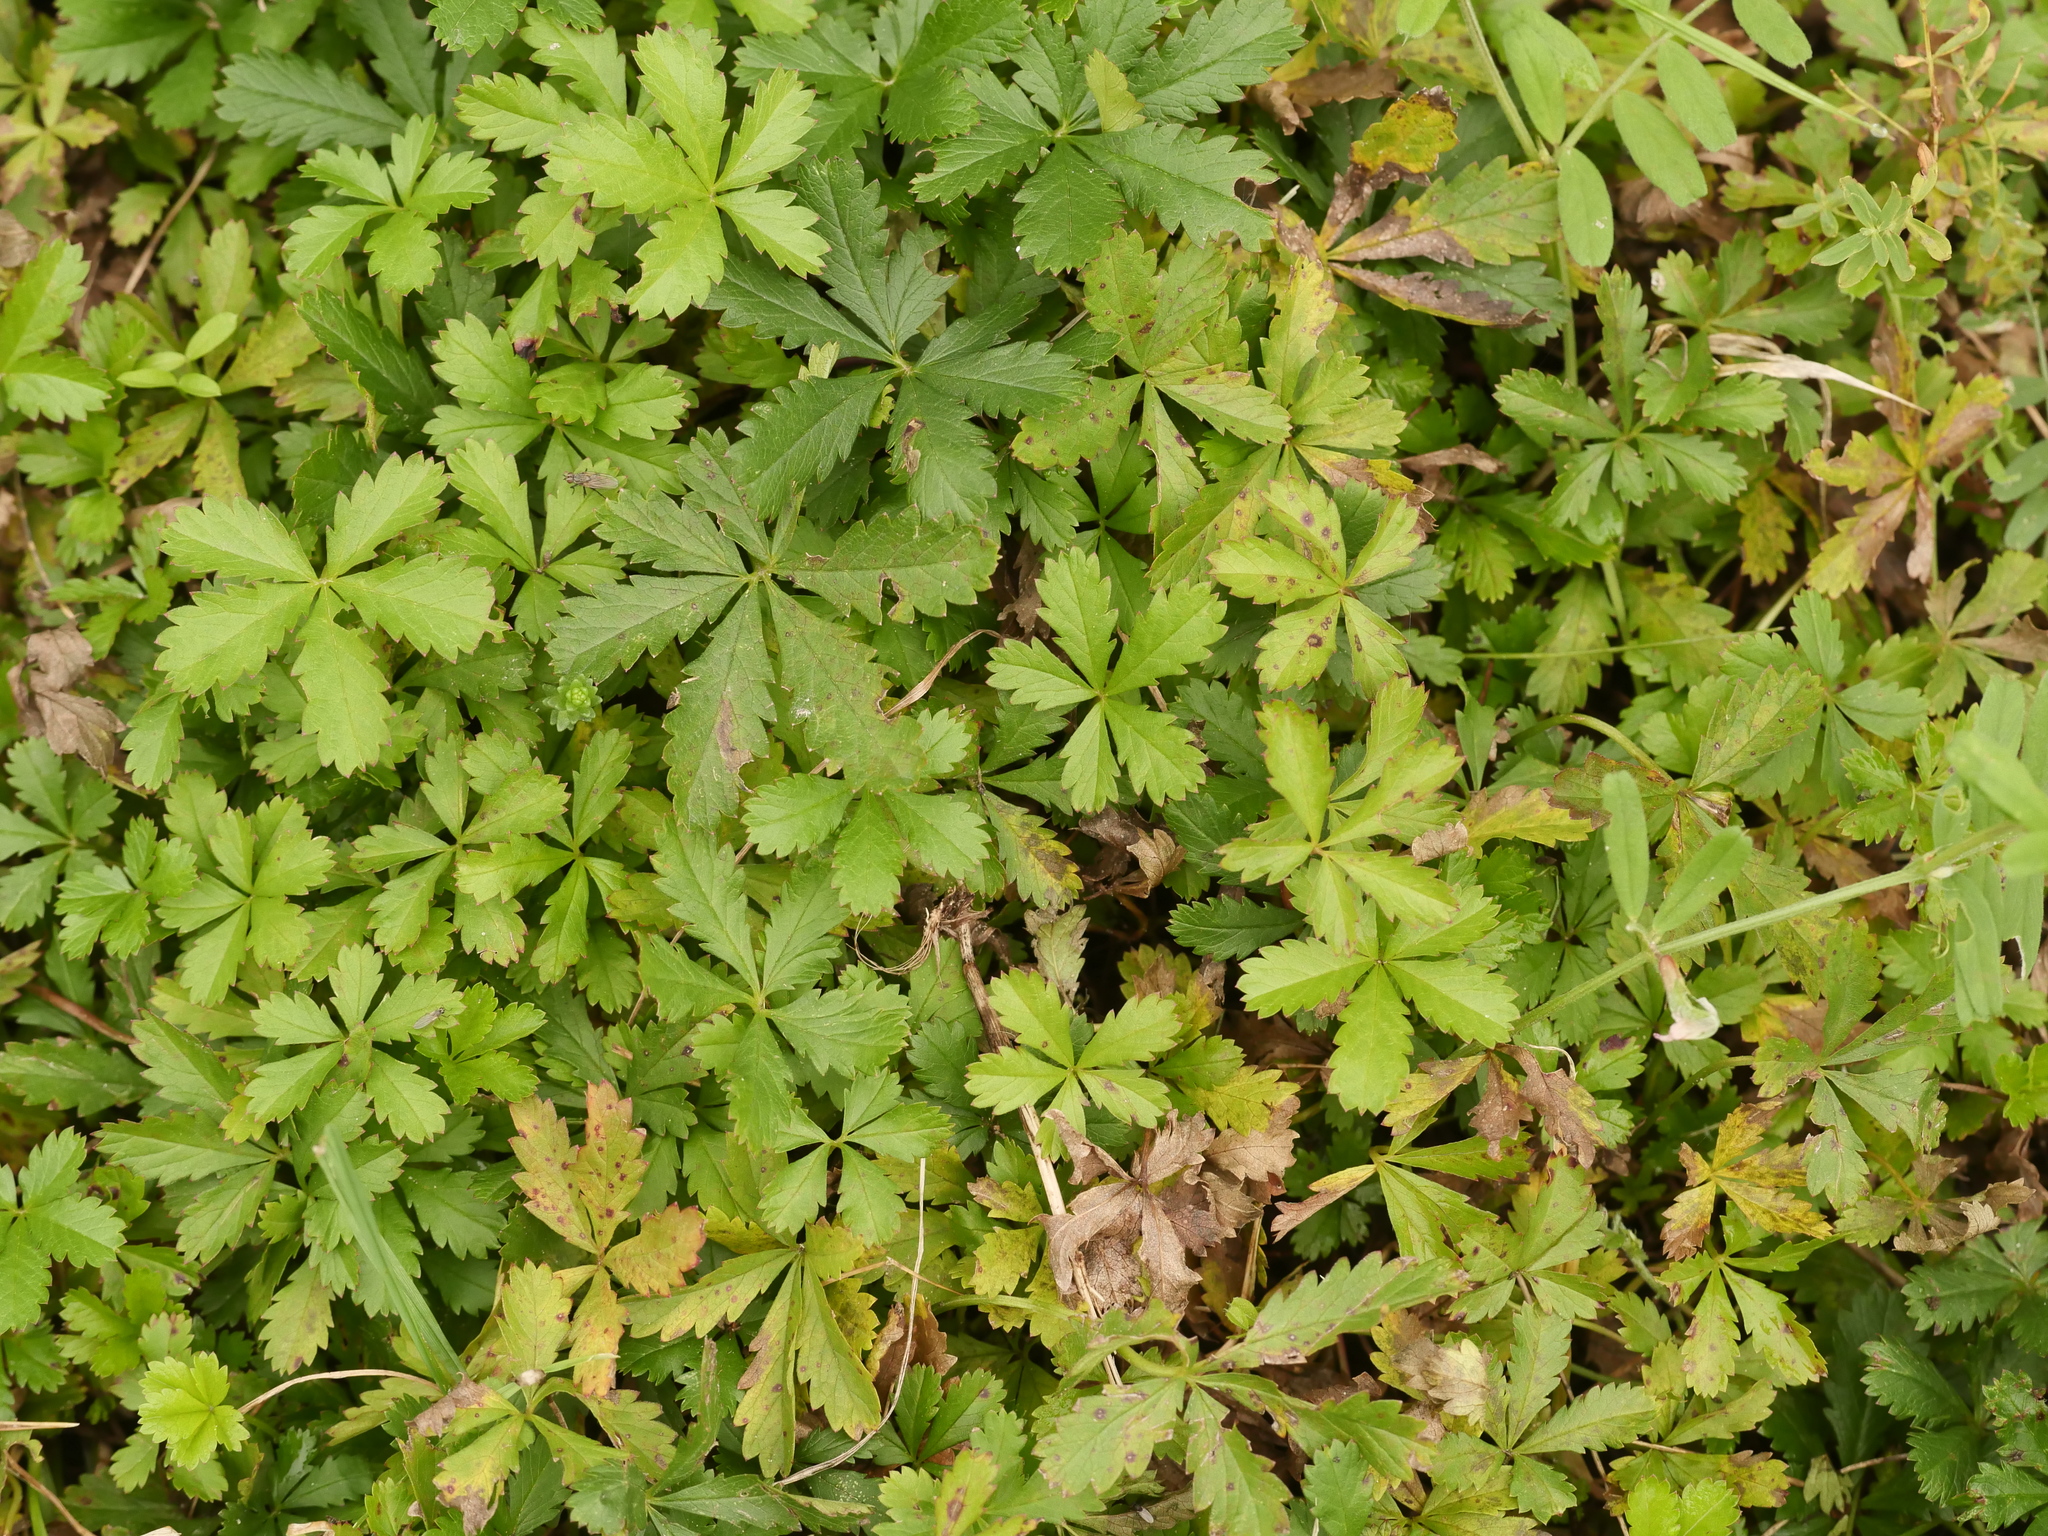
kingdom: Plantae
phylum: Tracheophyta
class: Magnoliopsida
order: Rosales
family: Rosaceae
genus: Potentilla
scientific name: Potentilla reptans
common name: Creeping cinquefoil
